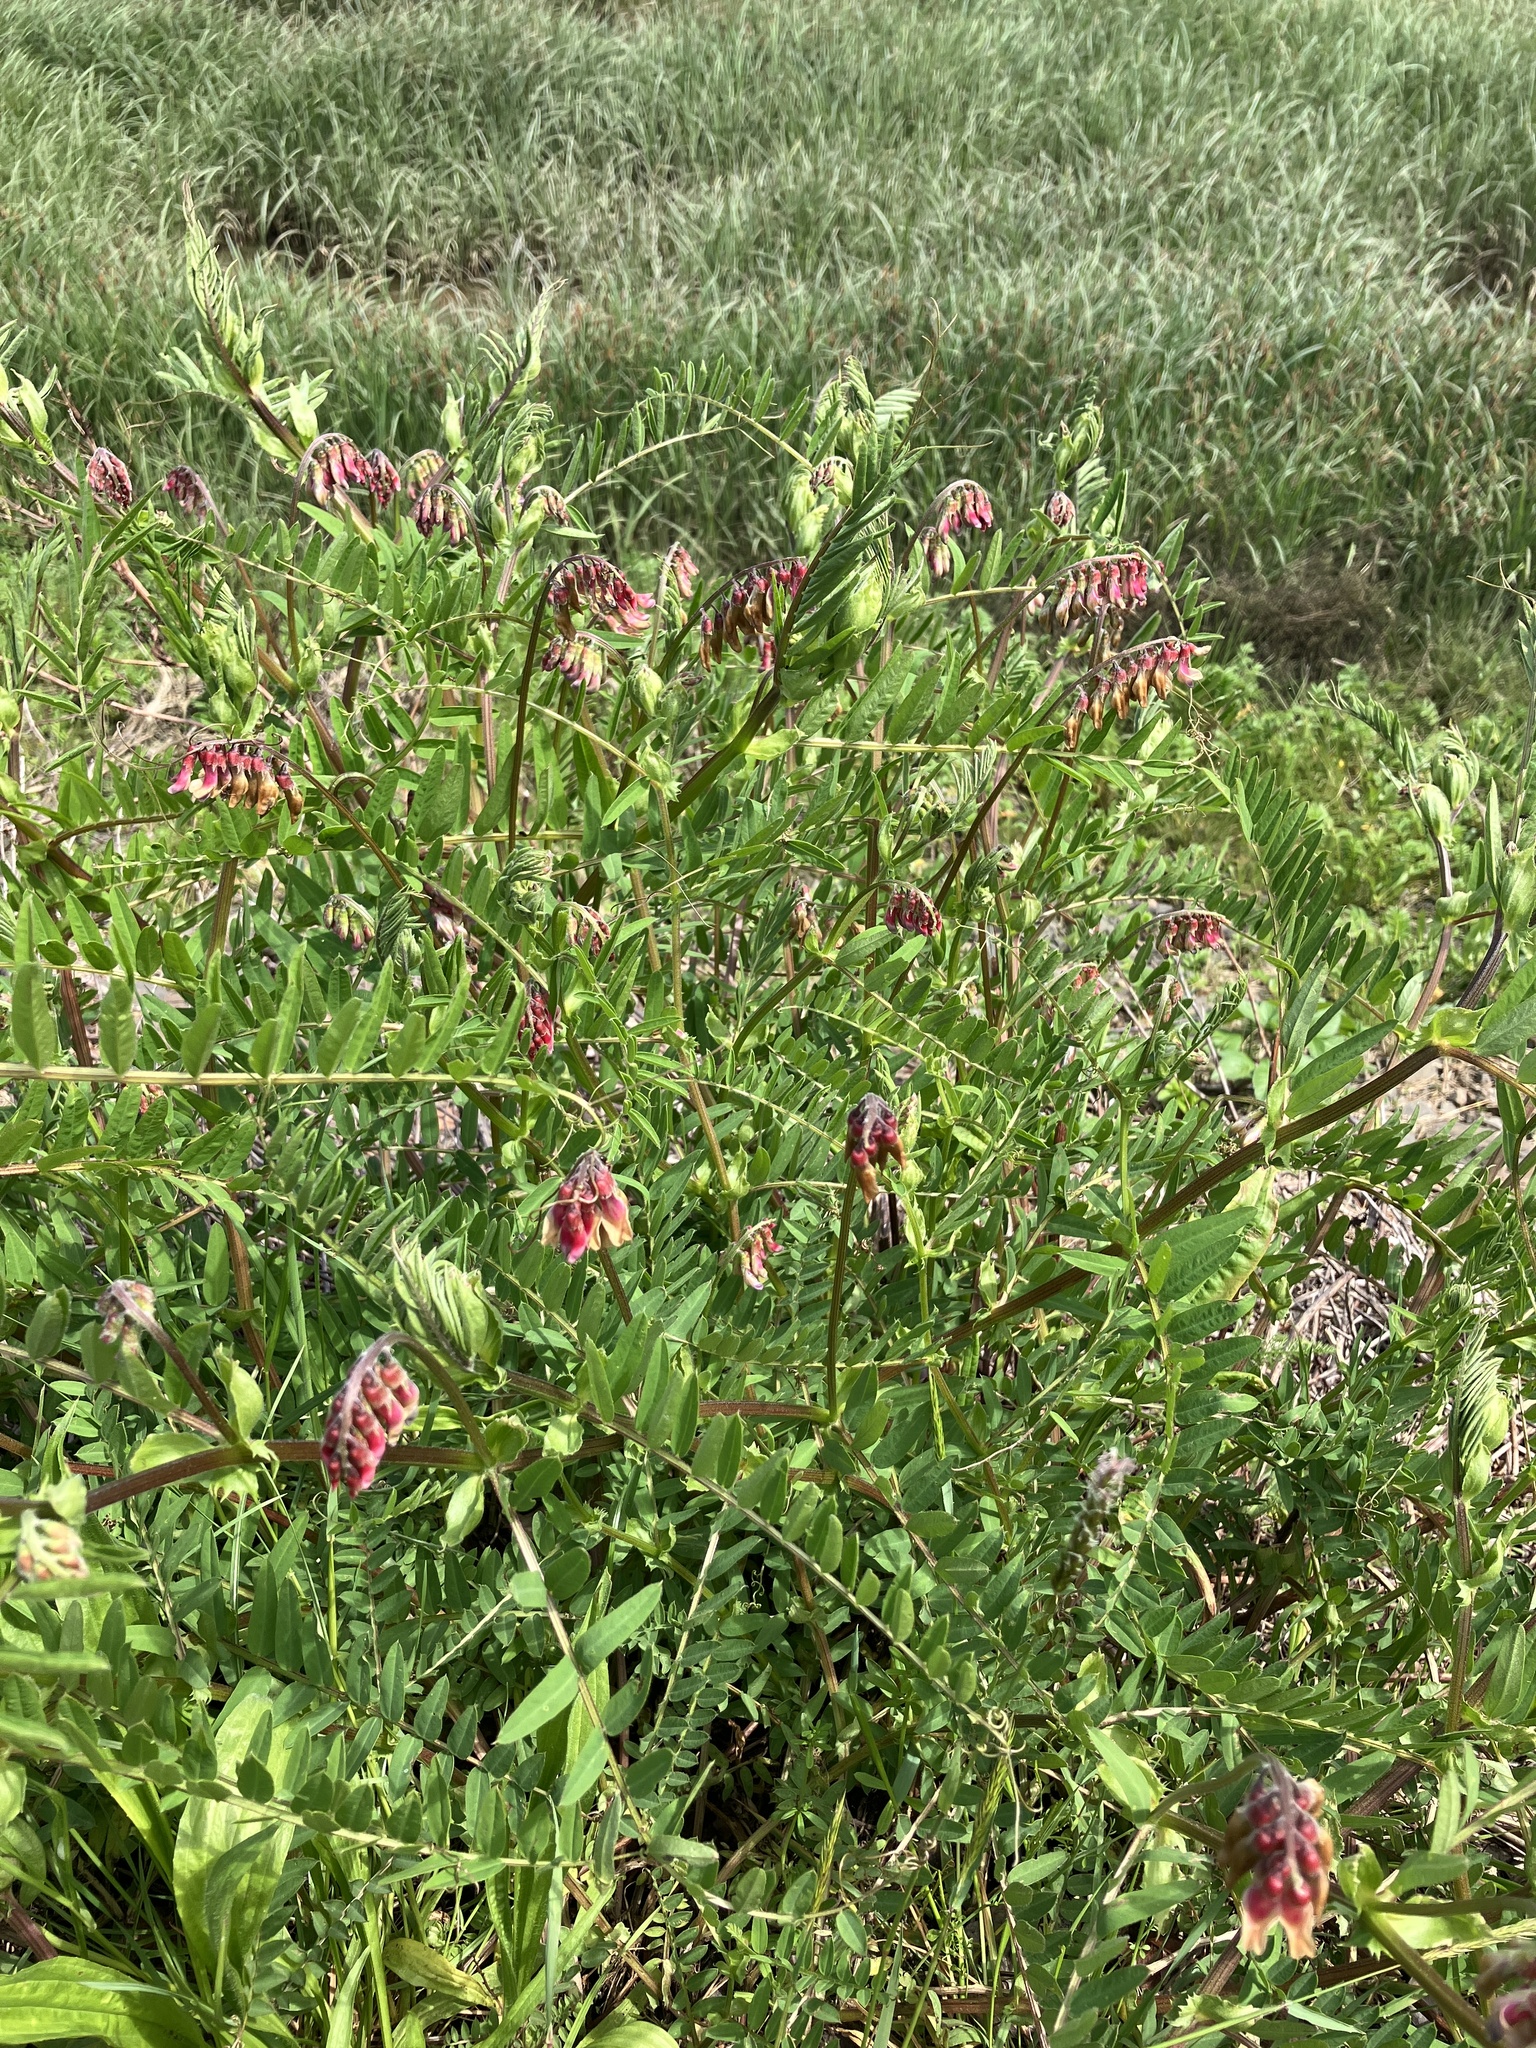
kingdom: Plantae
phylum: Tracheophyta
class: Magnoliopsida
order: Fabales
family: Fabaceae
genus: Vicia
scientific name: Vicia
